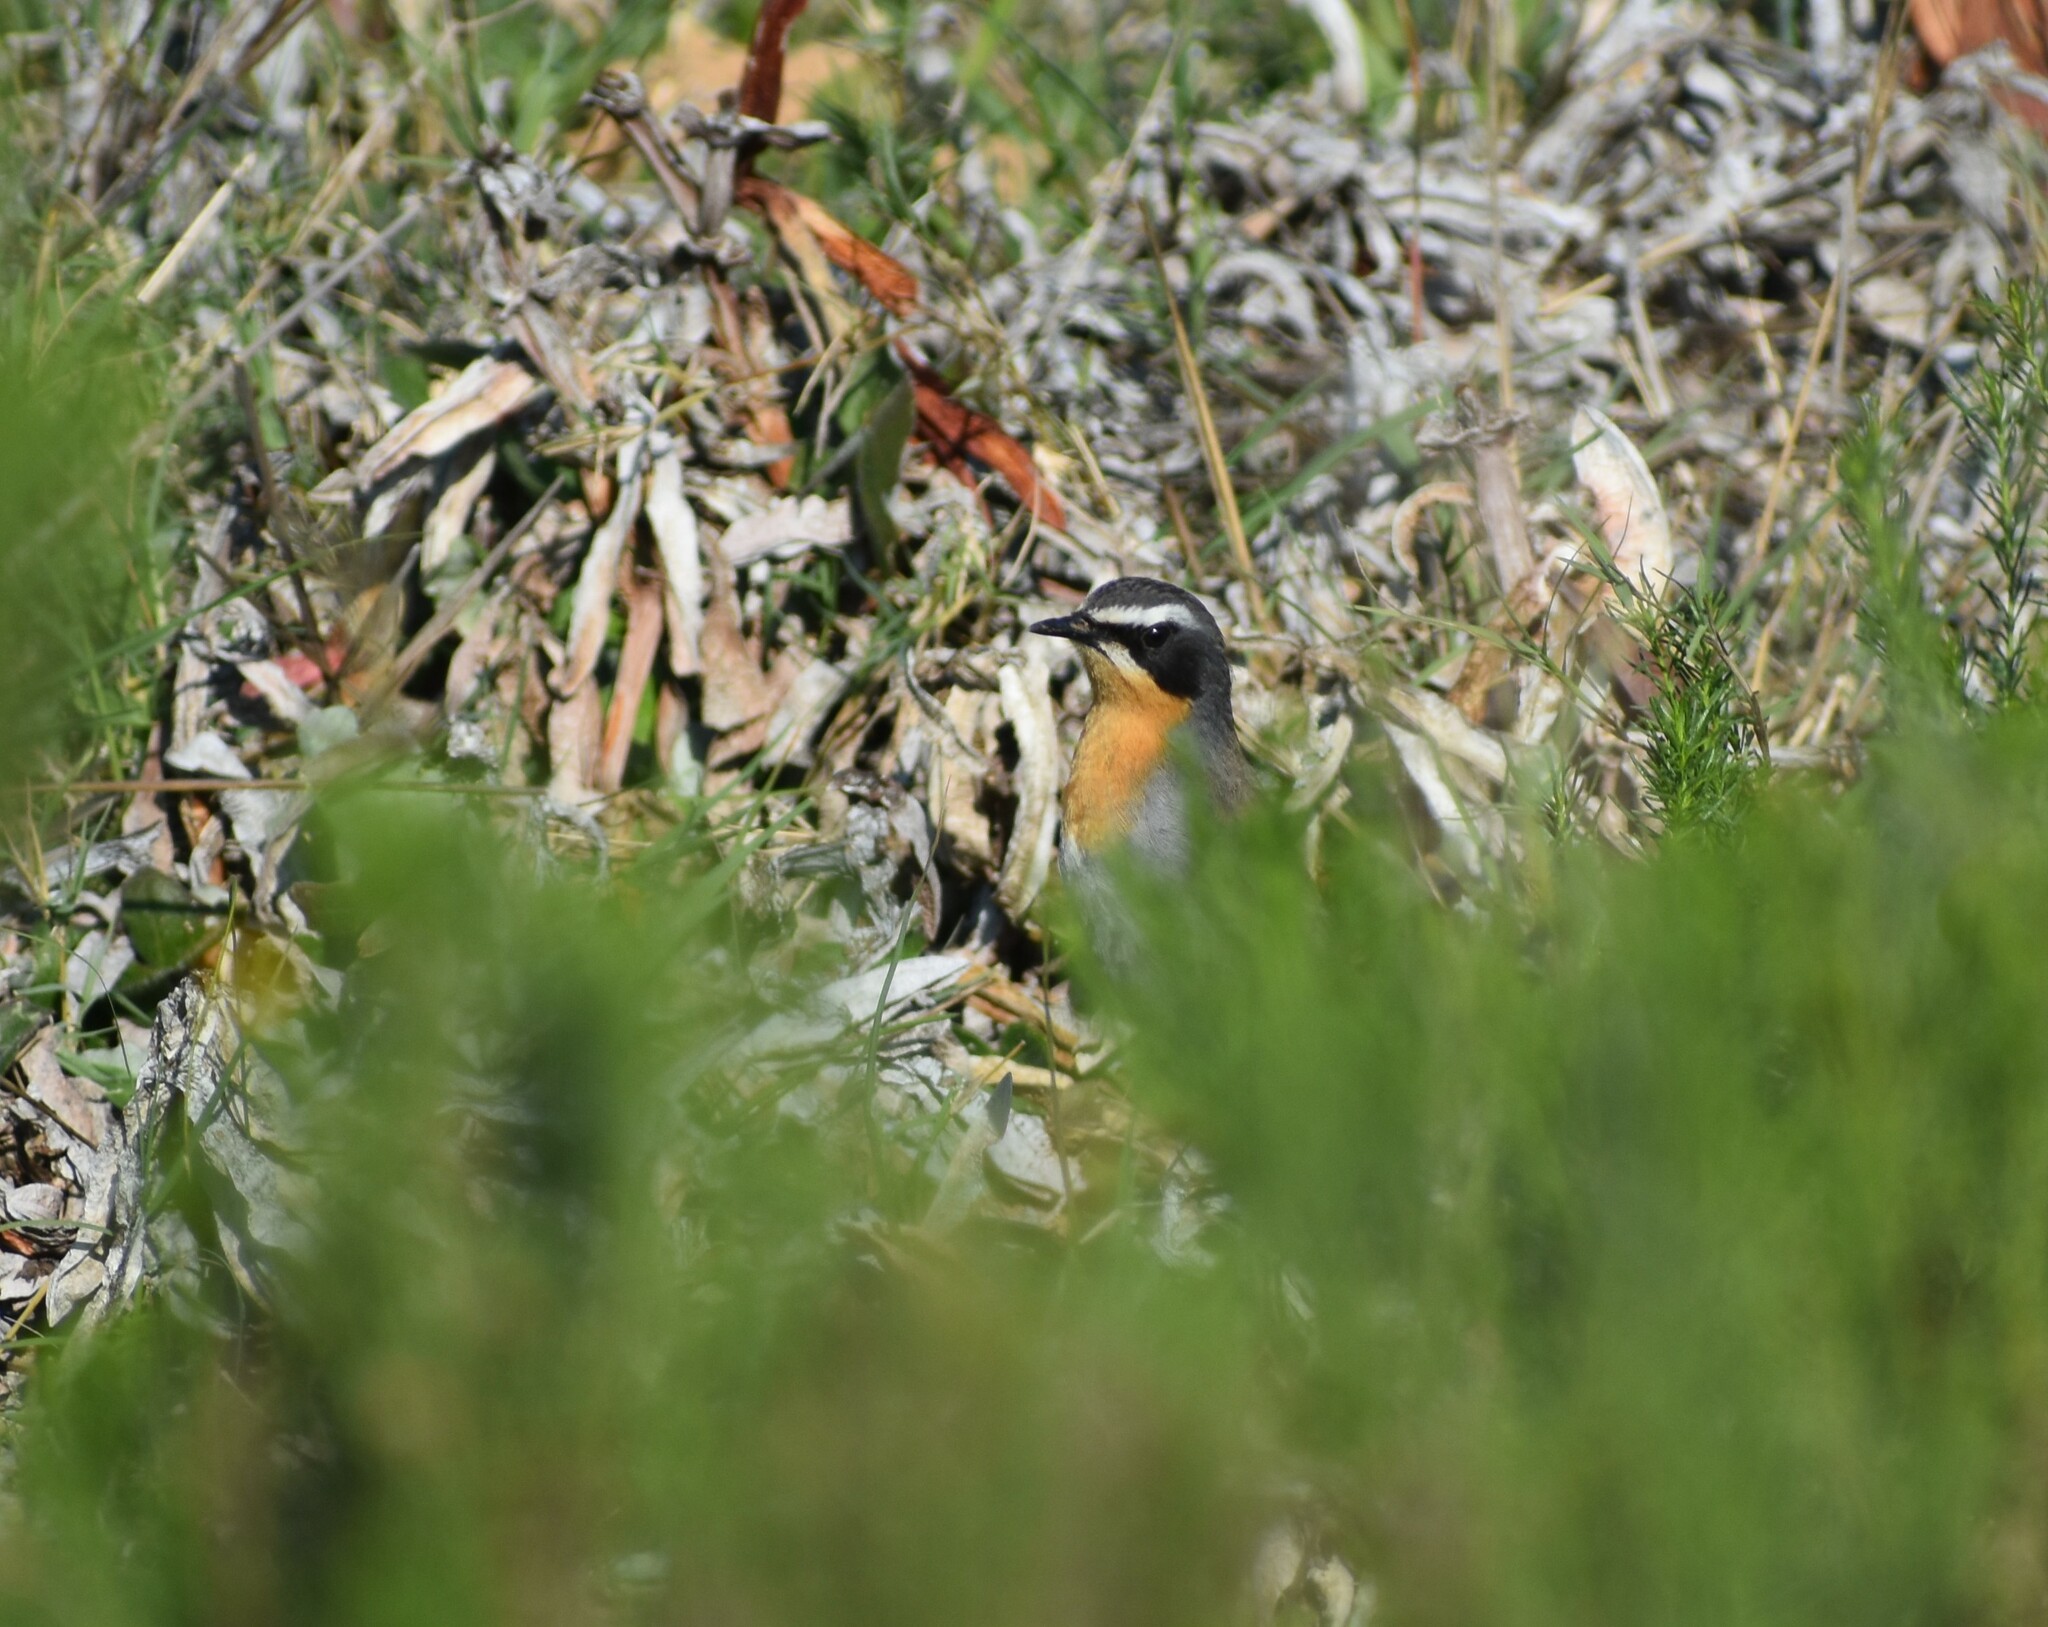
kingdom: Animalia
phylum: Chordata
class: Aves
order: Passeriformes
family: Muscicapidae
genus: Cossypha
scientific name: Cossypha caffra
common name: Cape robin-chat
